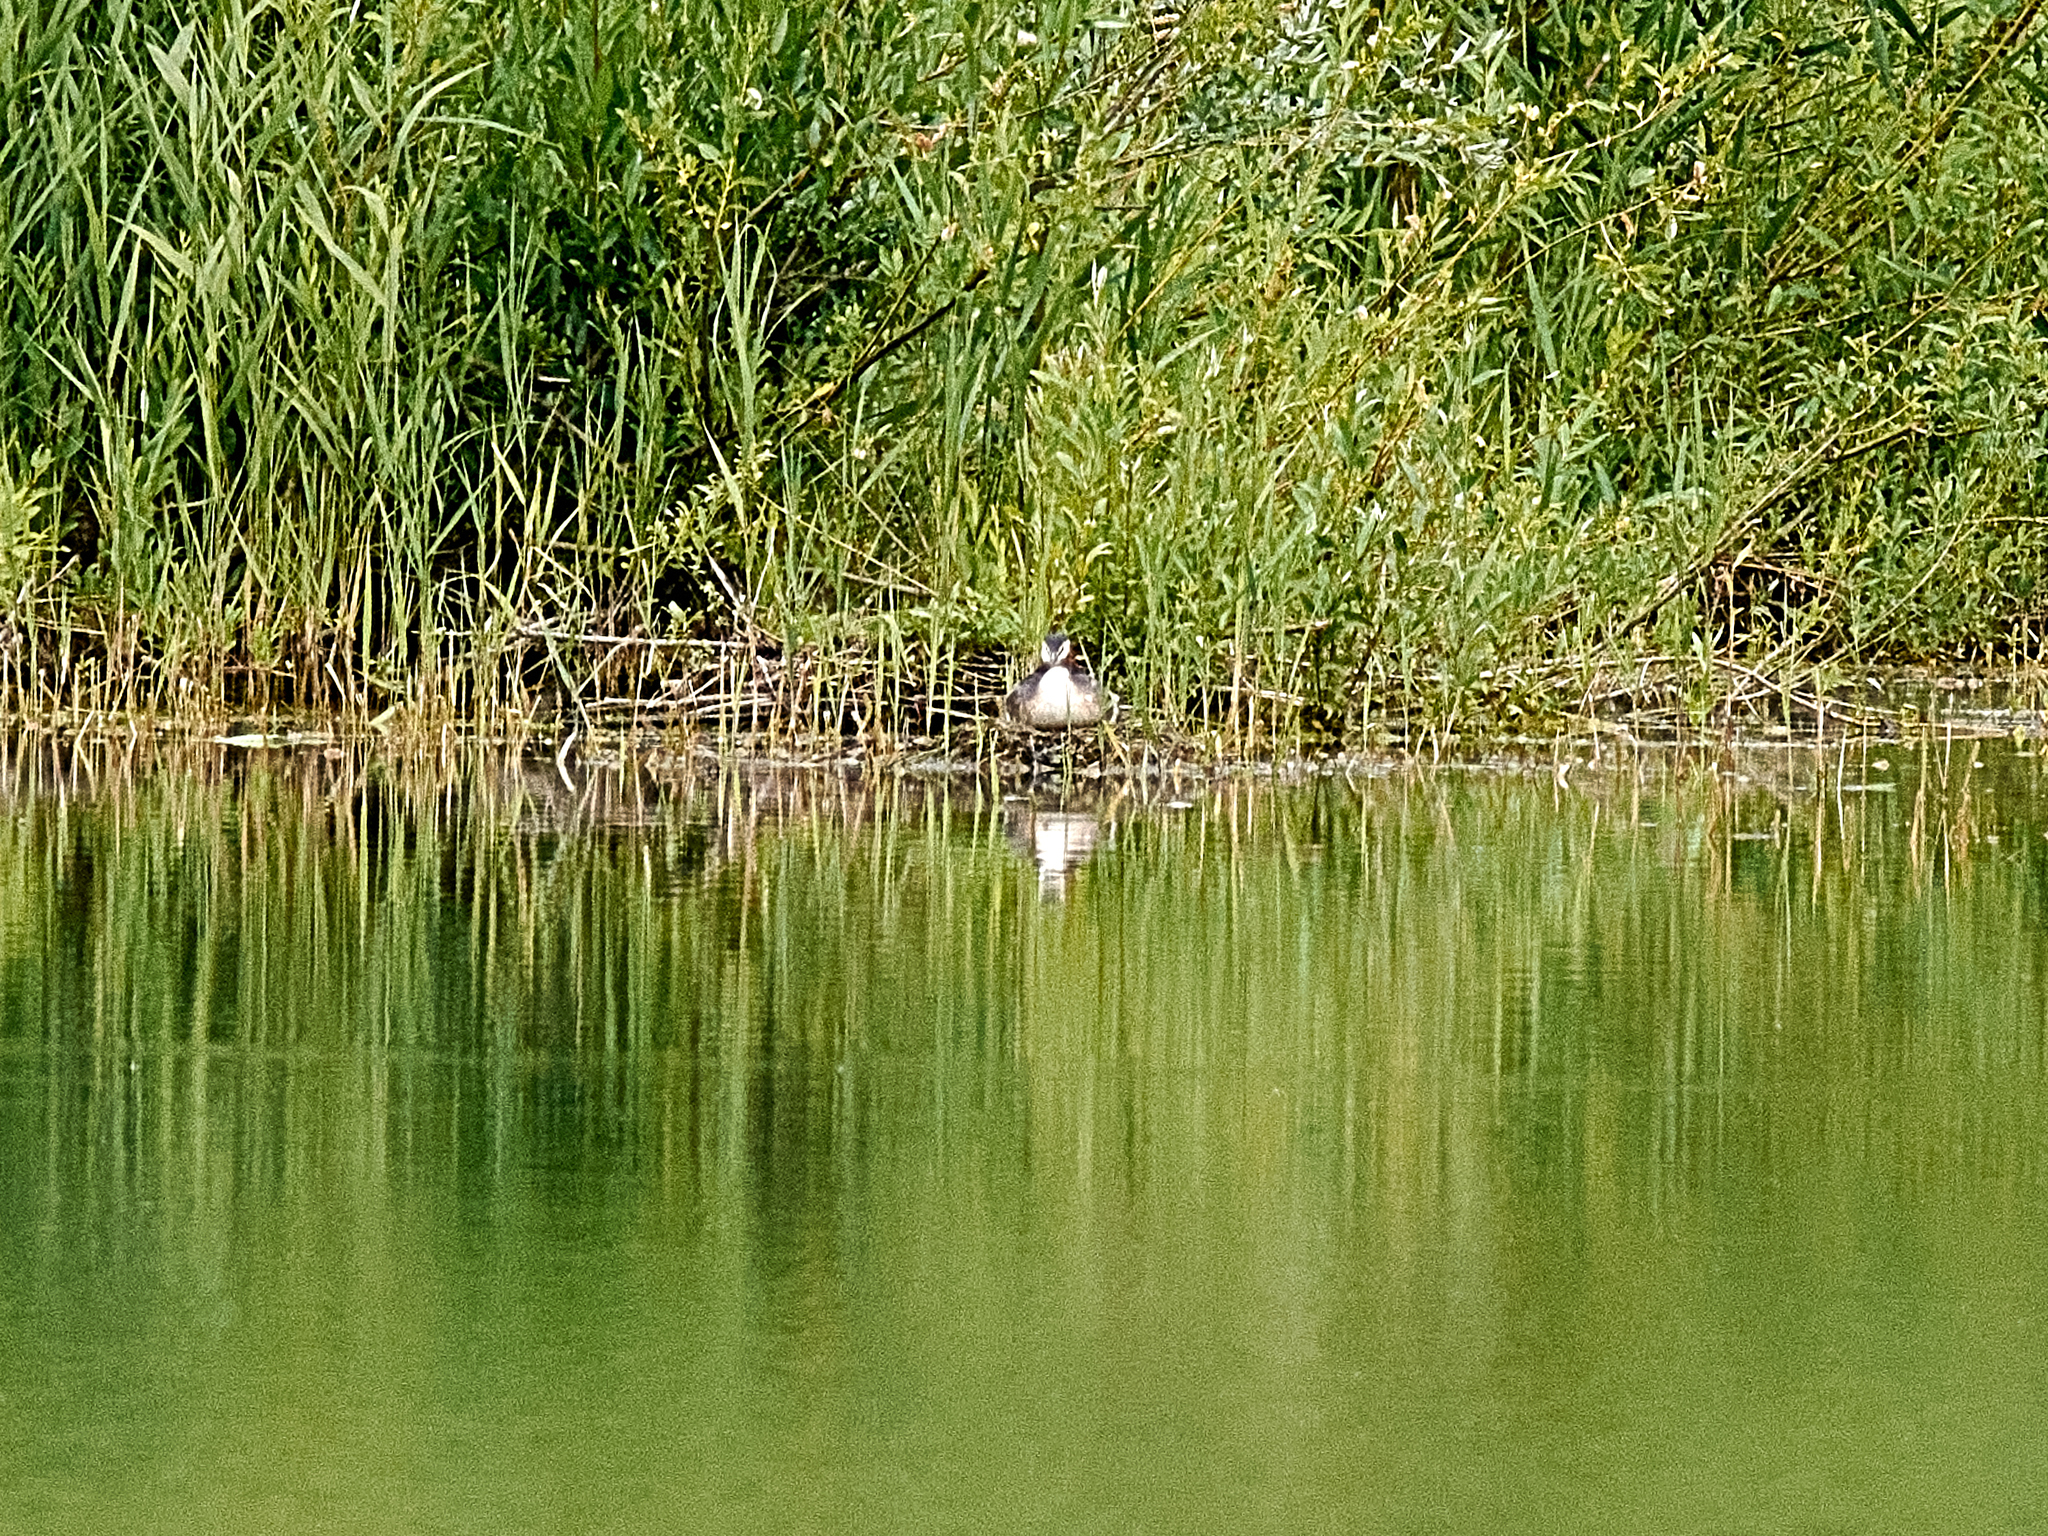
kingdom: Animalia
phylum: Chordata
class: Aves
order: Podicipediformes
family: Podicipedidae
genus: Podiceps
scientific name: Podiceps cristatus
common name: Great crested grebe
